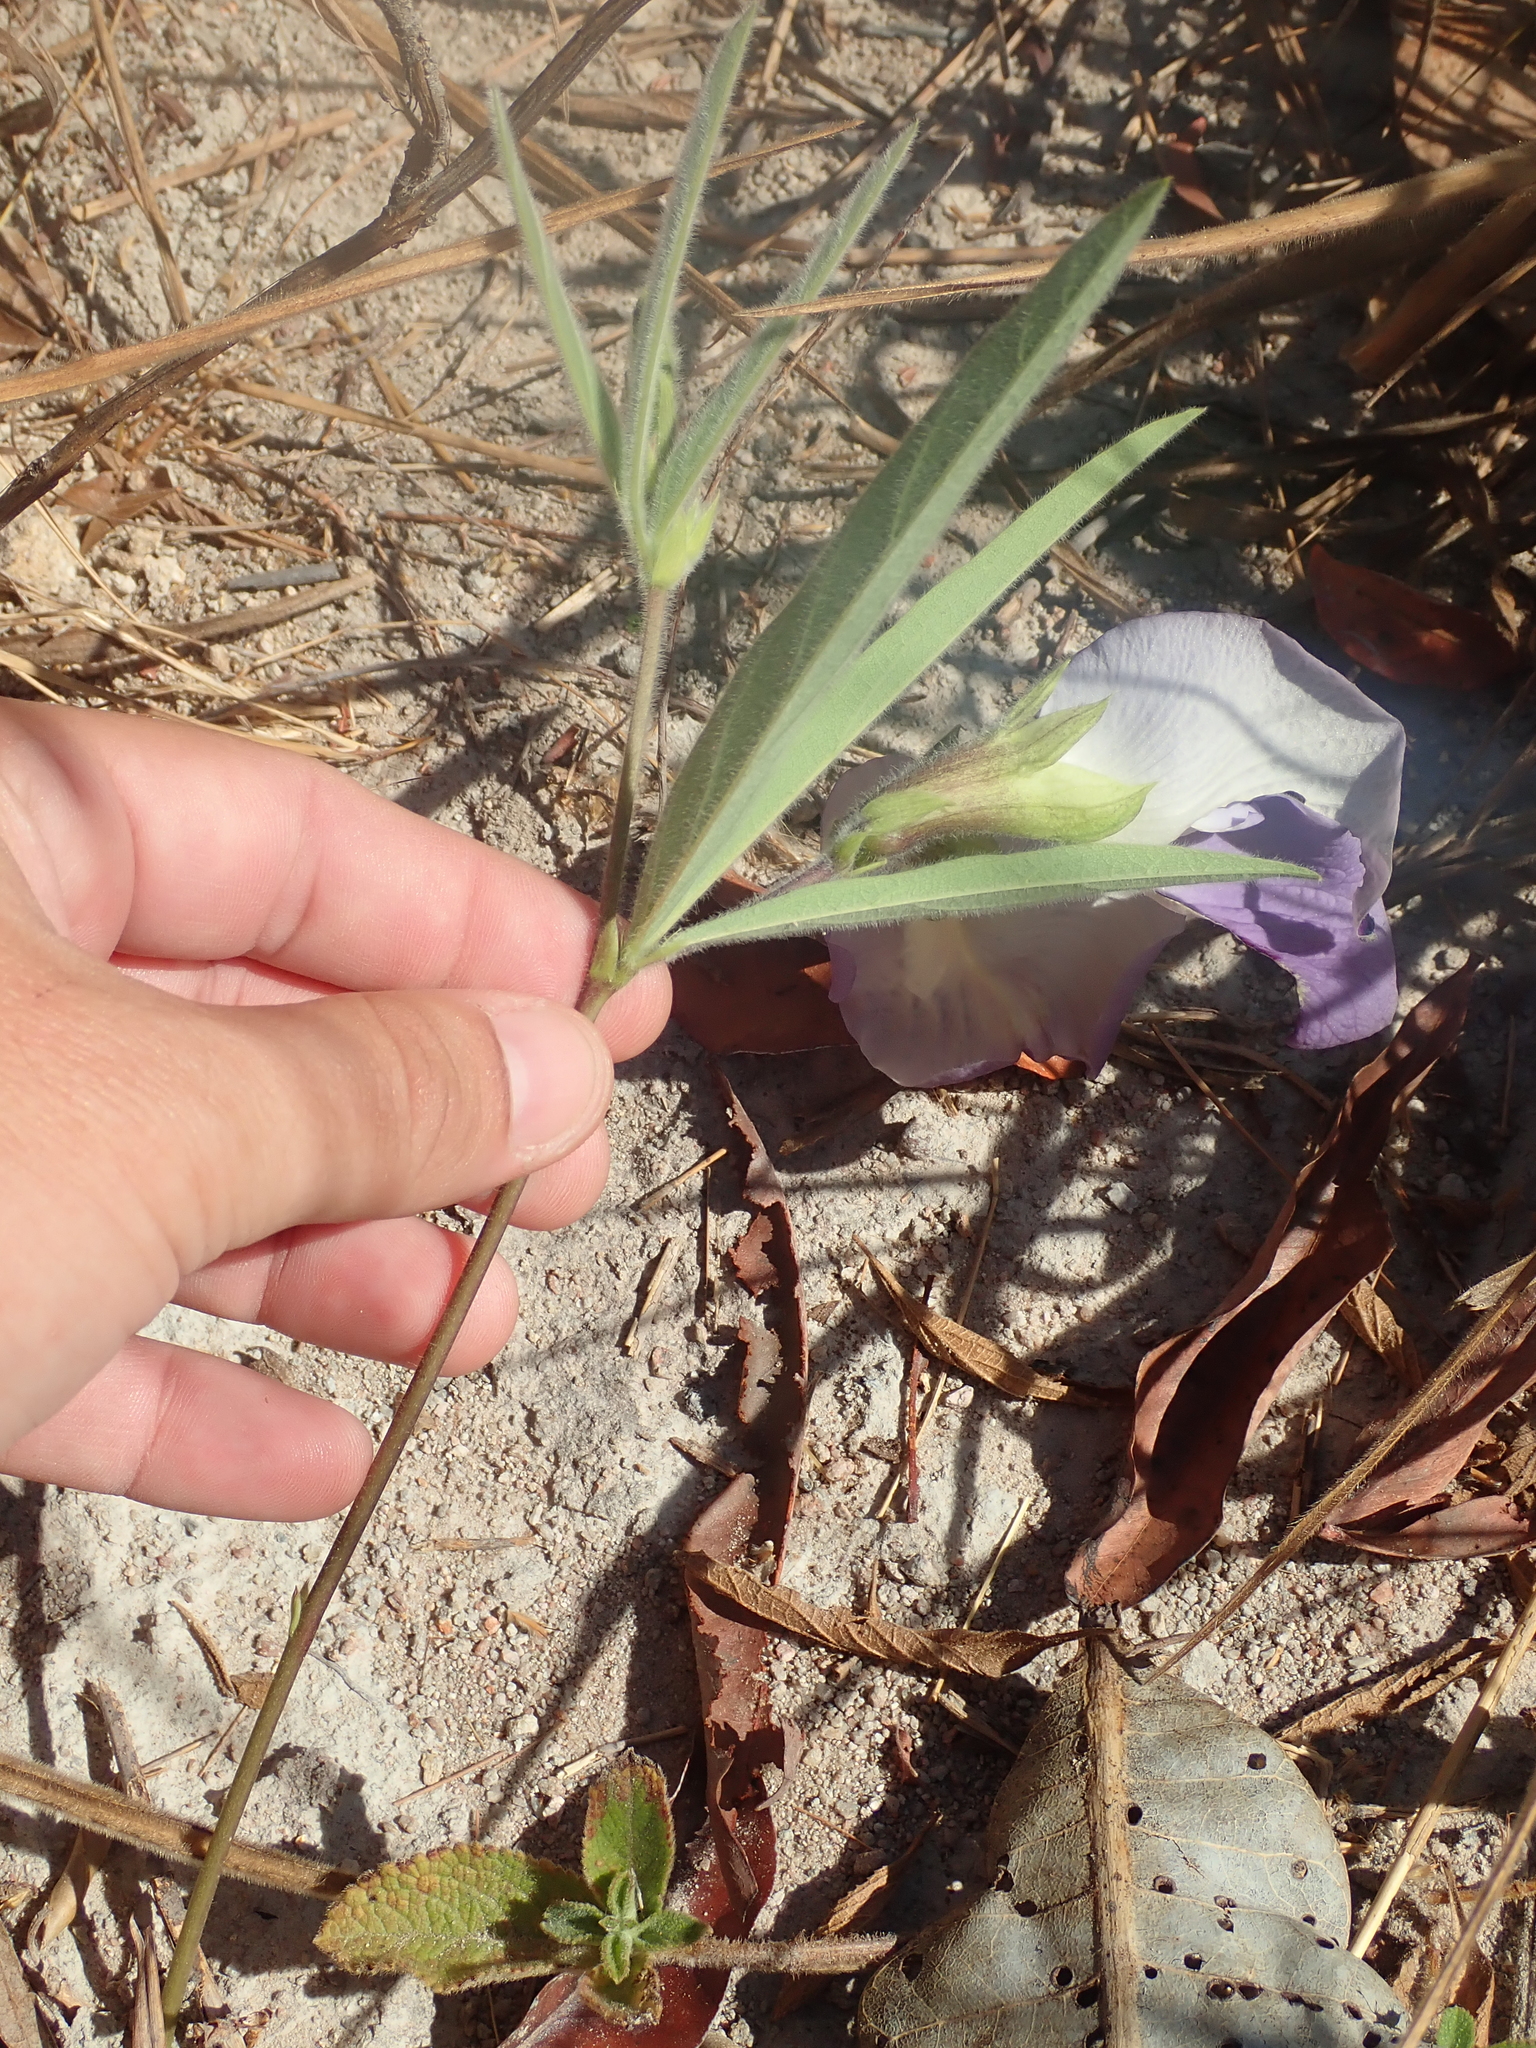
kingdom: Plantae
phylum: Tracheophyta
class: Magnoliopsida
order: Fabales
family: Fabaceae
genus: Clitoria
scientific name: Clitoria guianensis
